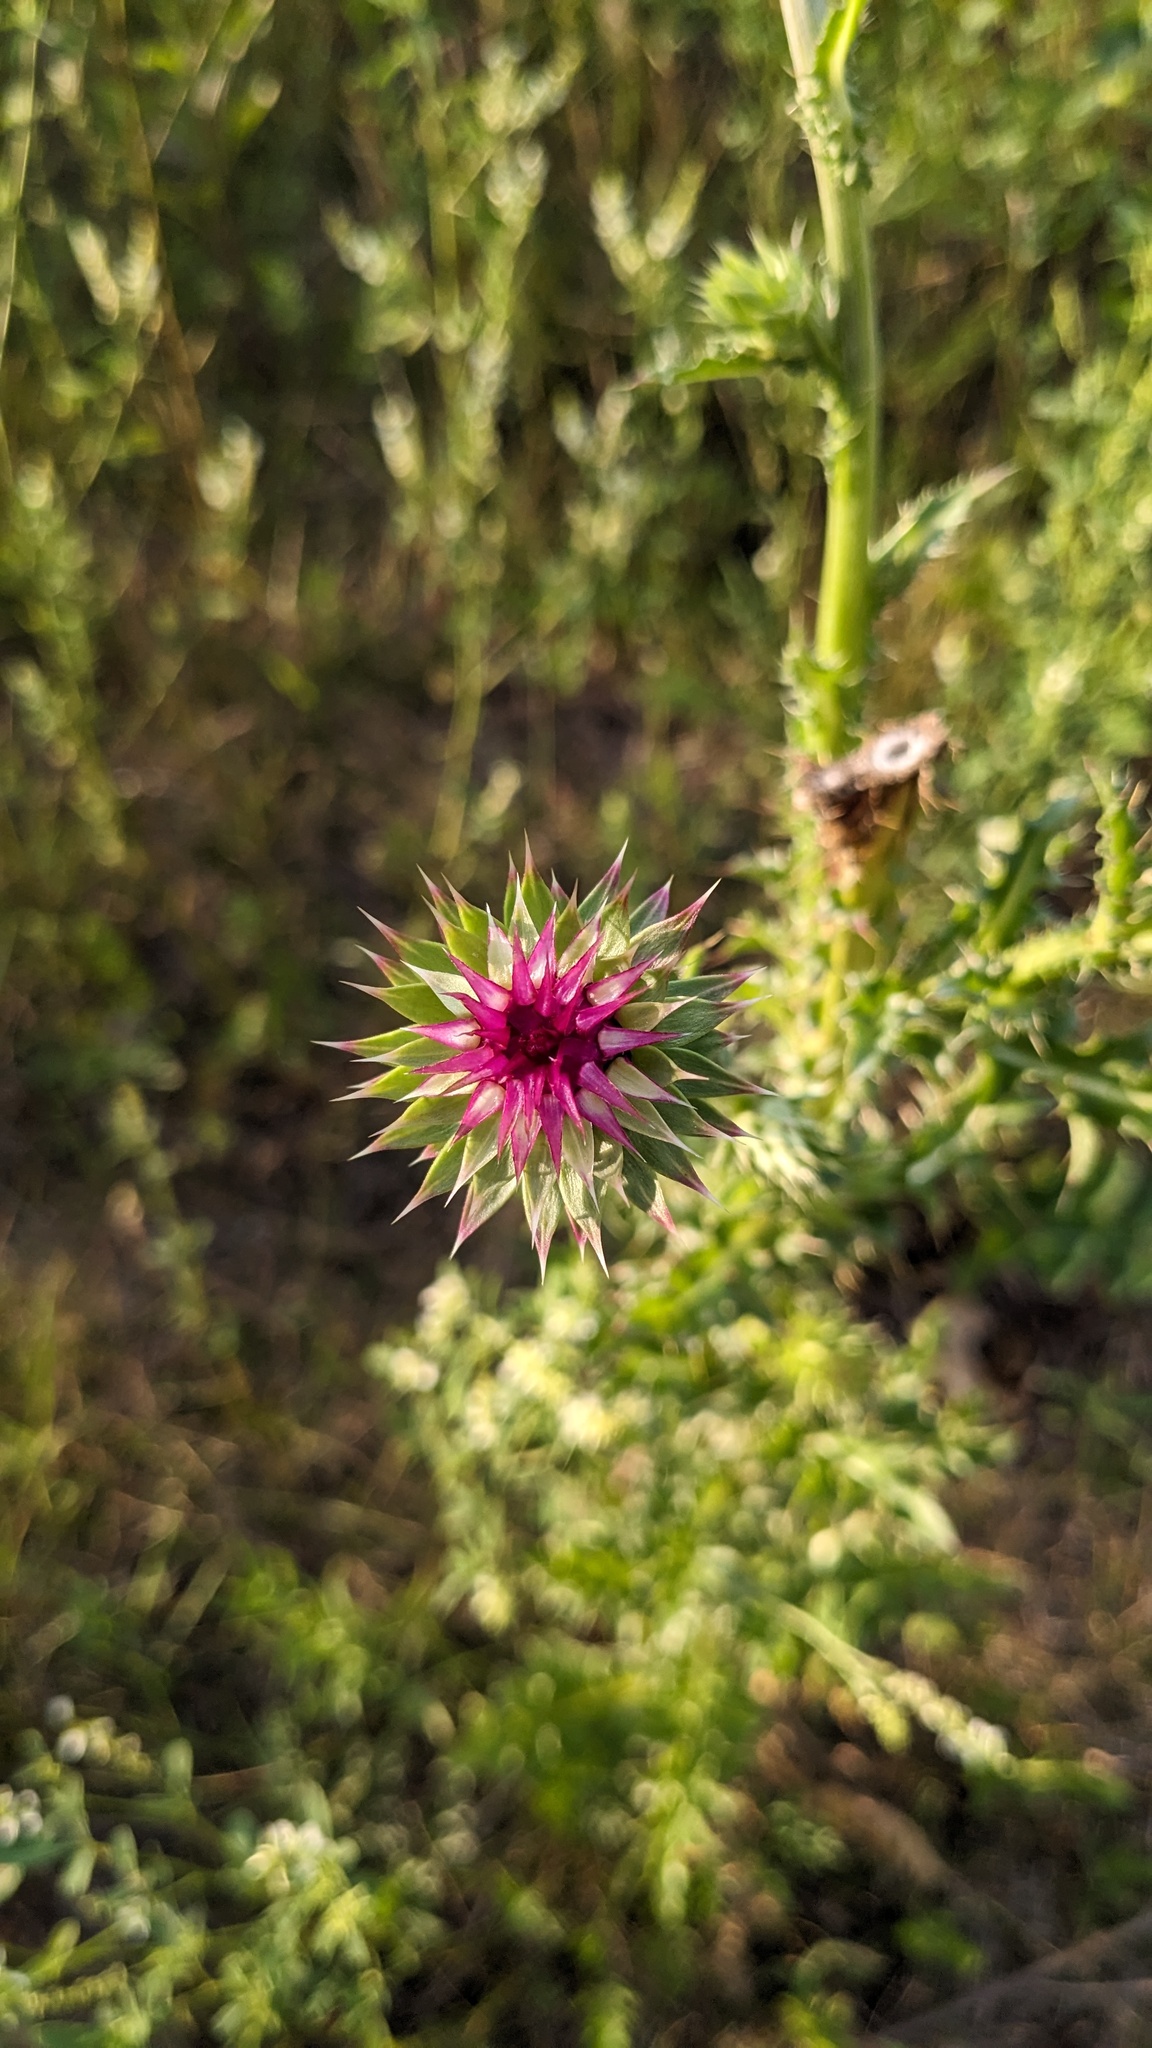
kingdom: Plantae
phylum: Tracheophyta
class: Magnoliopsida
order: Asterales
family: Asteraceae
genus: Carduus
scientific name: Carduus nutans
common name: Musk thistle
